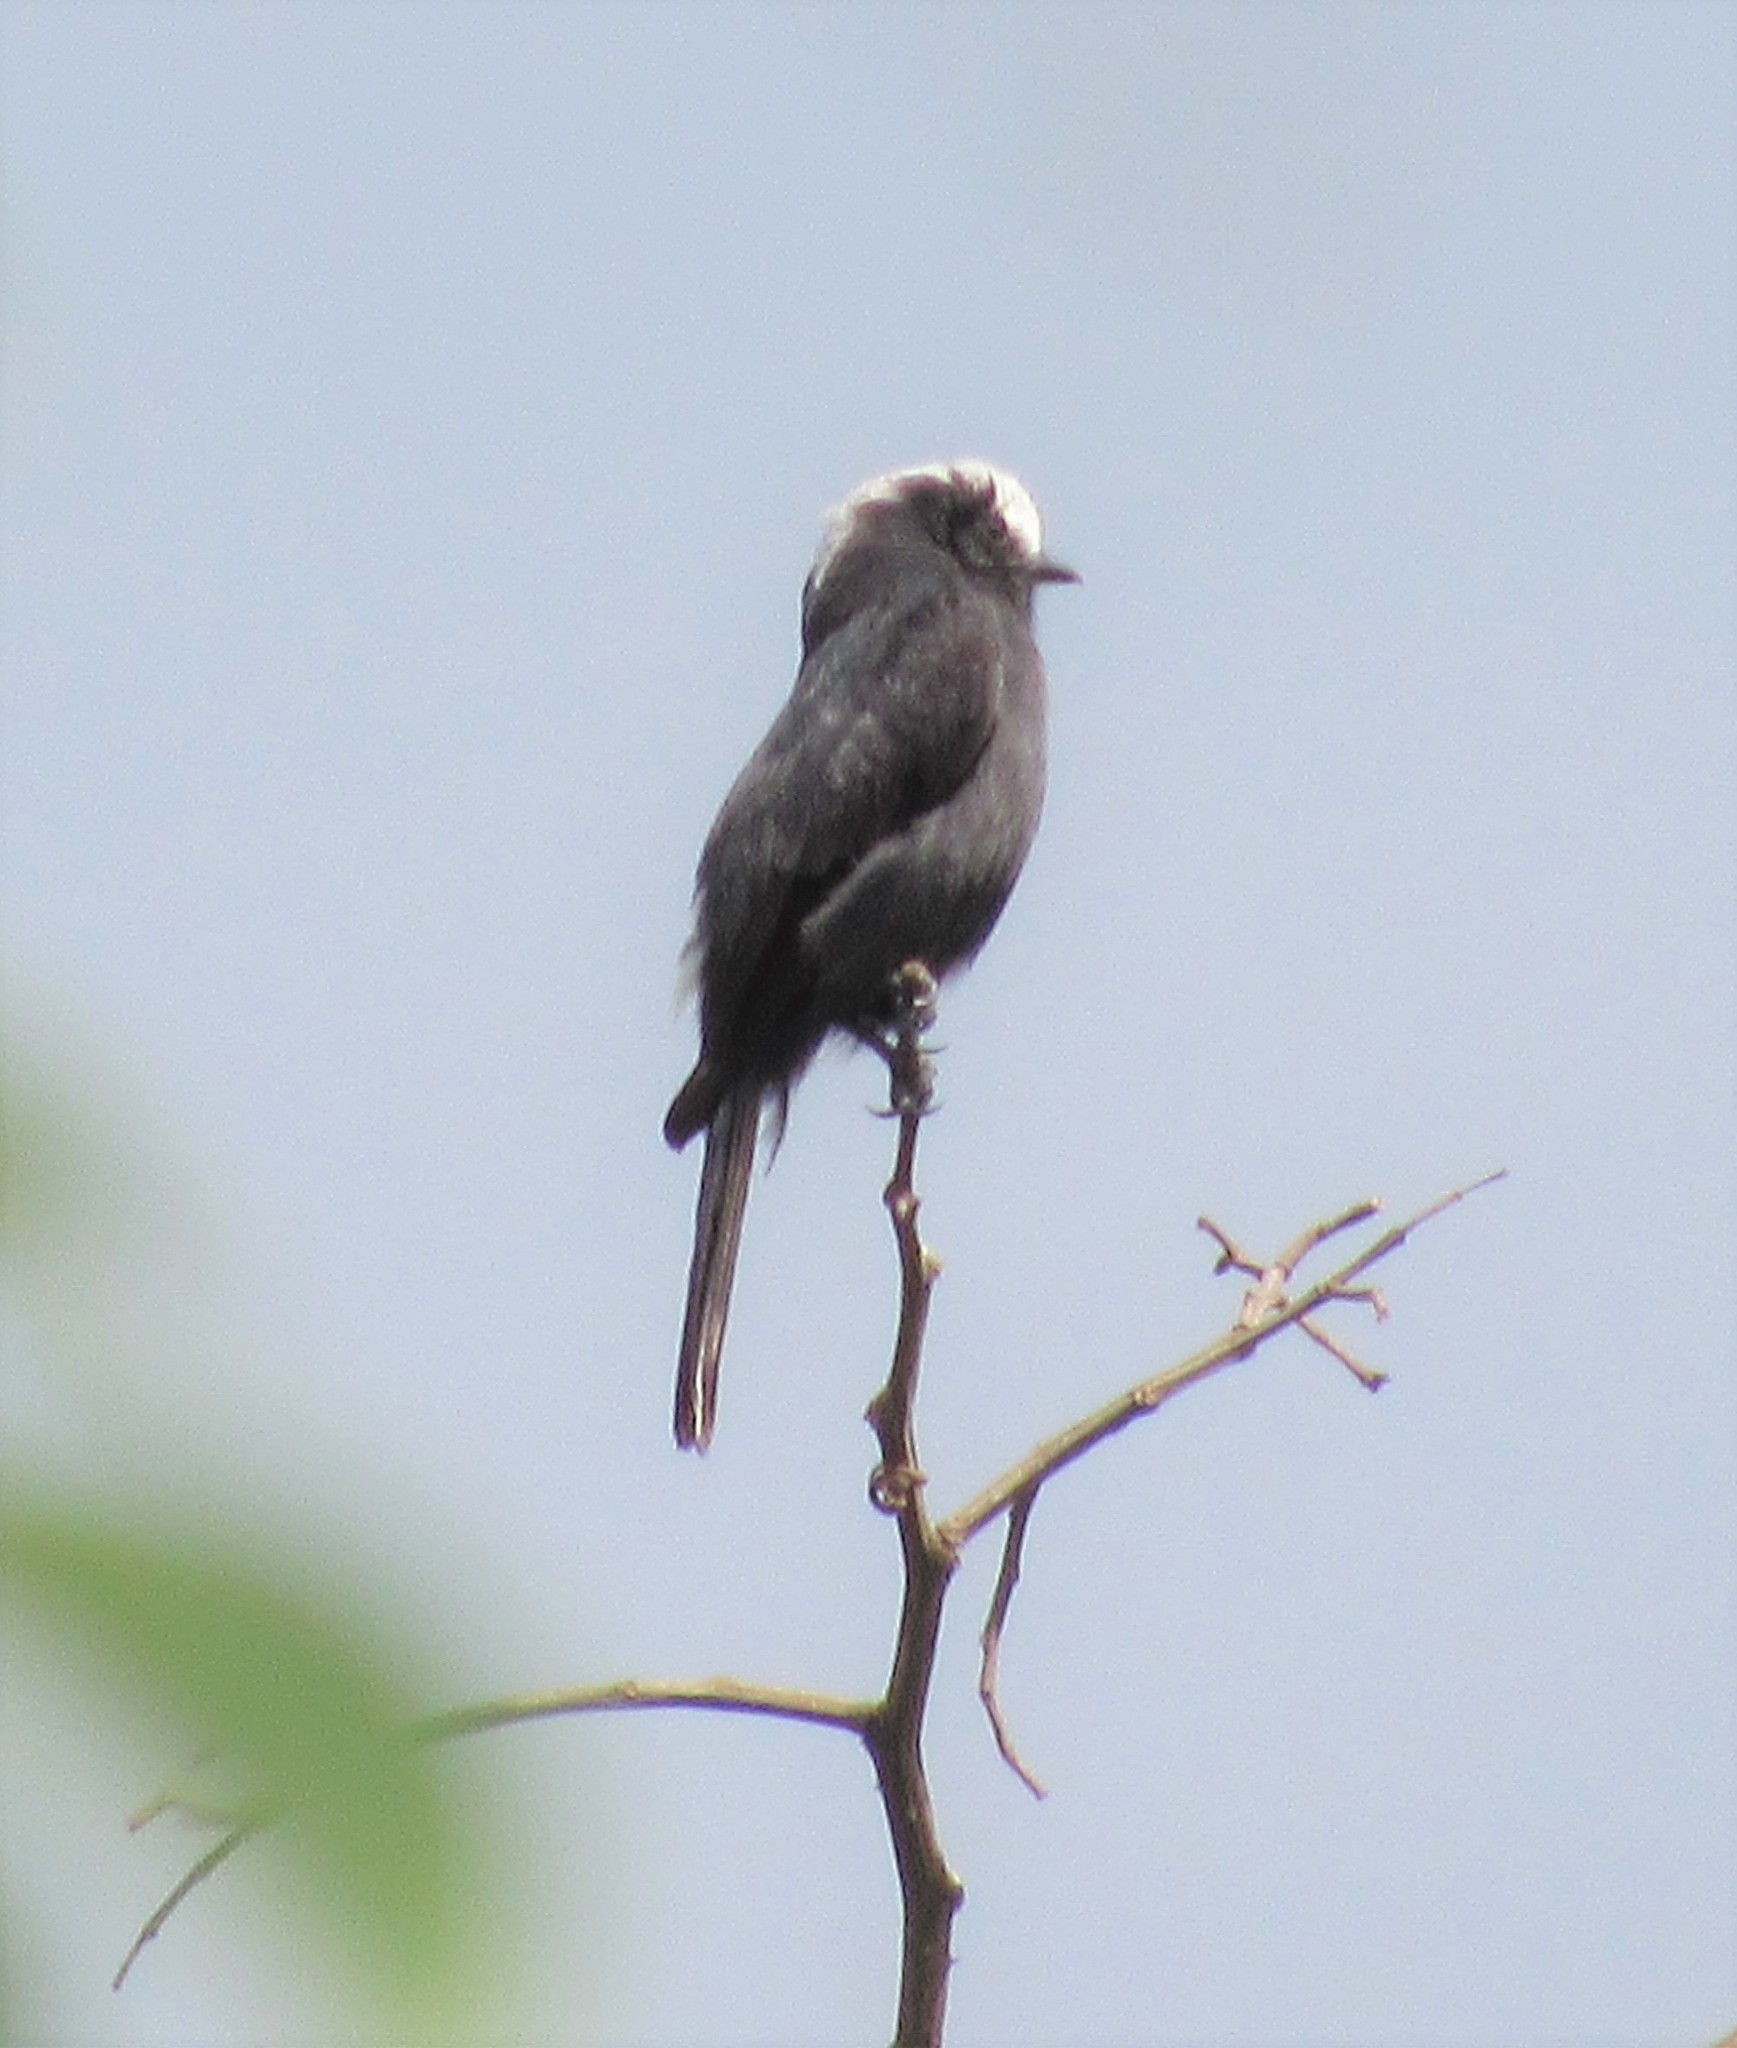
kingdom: Animalia
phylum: Chordata
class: Aves
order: Passeriformes
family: Tyrannidae
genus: Colonia
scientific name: Colonia colonus
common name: Long-tailed tyrant
